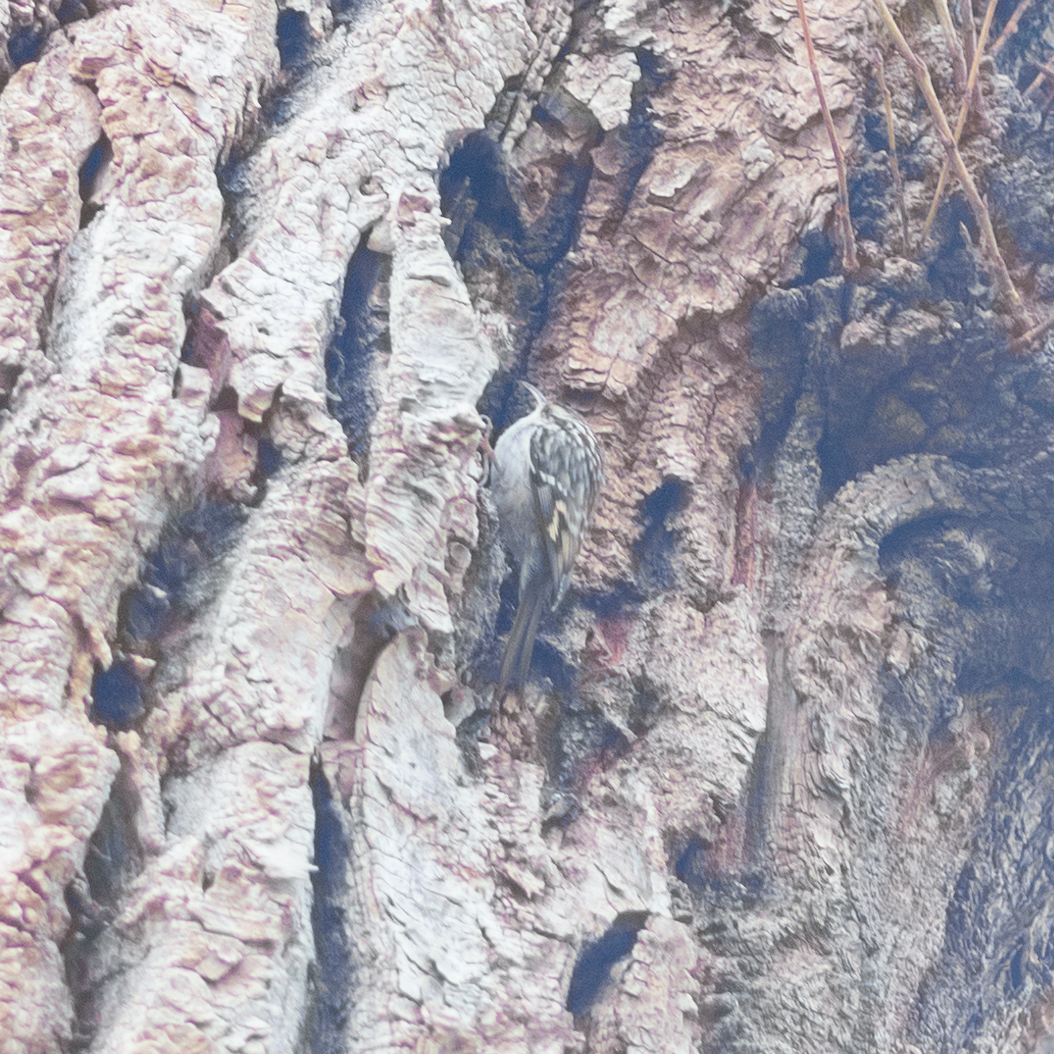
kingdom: Animalia
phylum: Chordata
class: Aves
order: Passeriformes
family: Certhiidae
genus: Certhia
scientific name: Certhia brachydactyla
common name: Short-toed treecreeper
